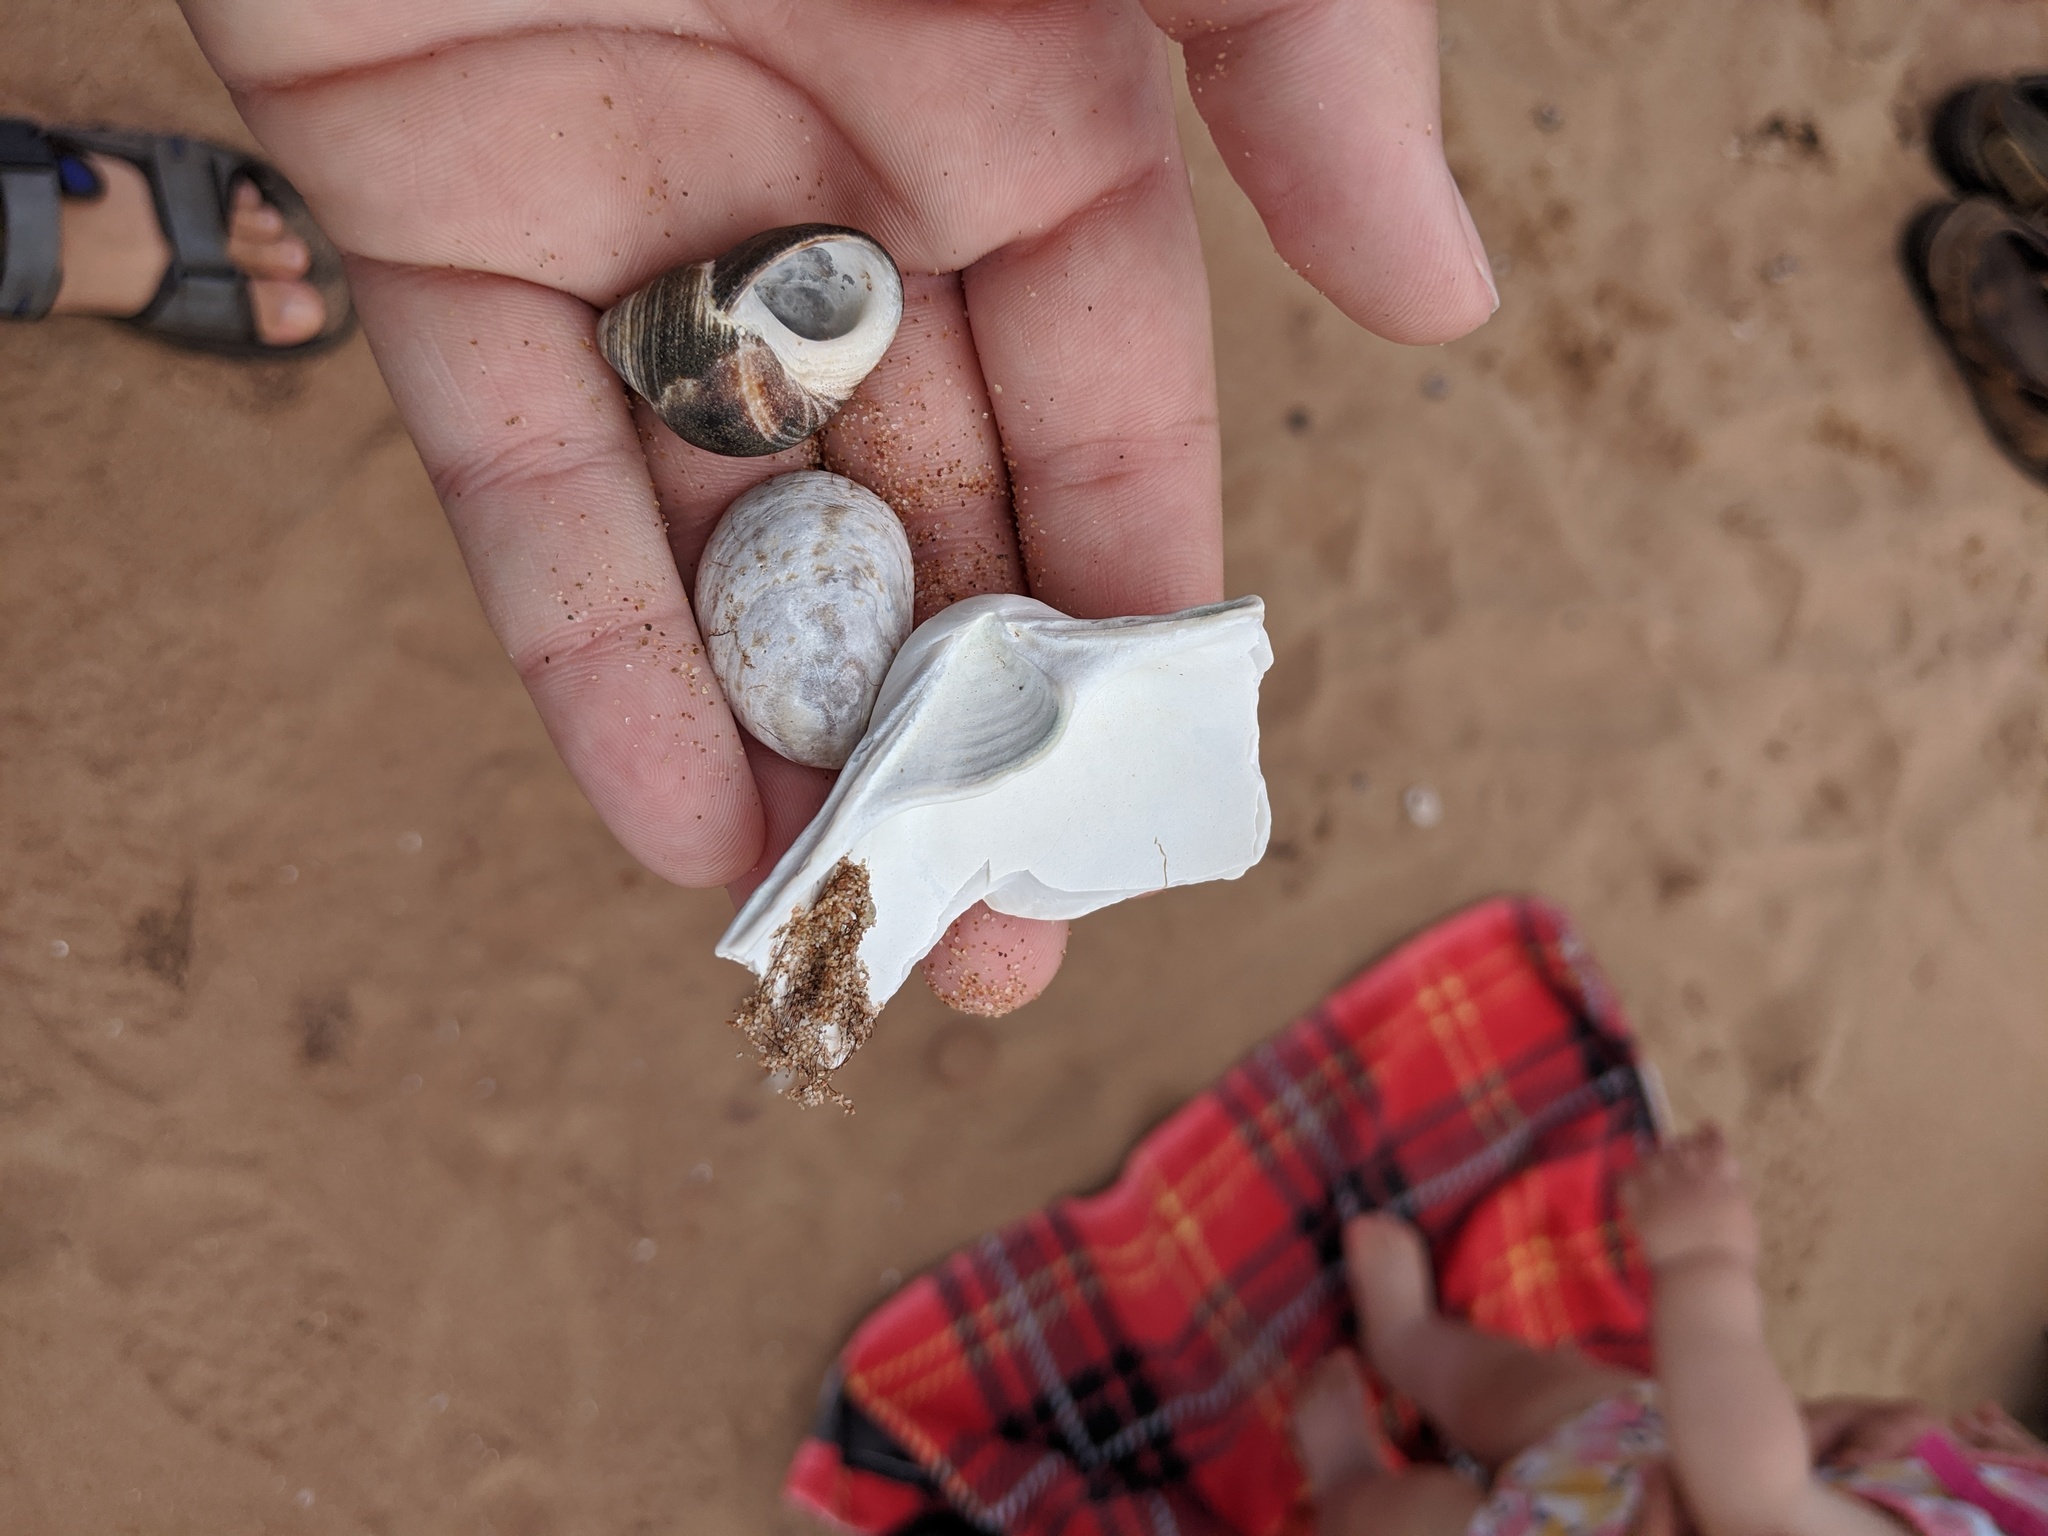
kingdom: Animalia
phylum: Mollusca
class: Bivalvia
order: Venerida
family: Mactridae
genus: Spisula
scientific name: Spisula solidissima
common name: Atlantic surf clam
